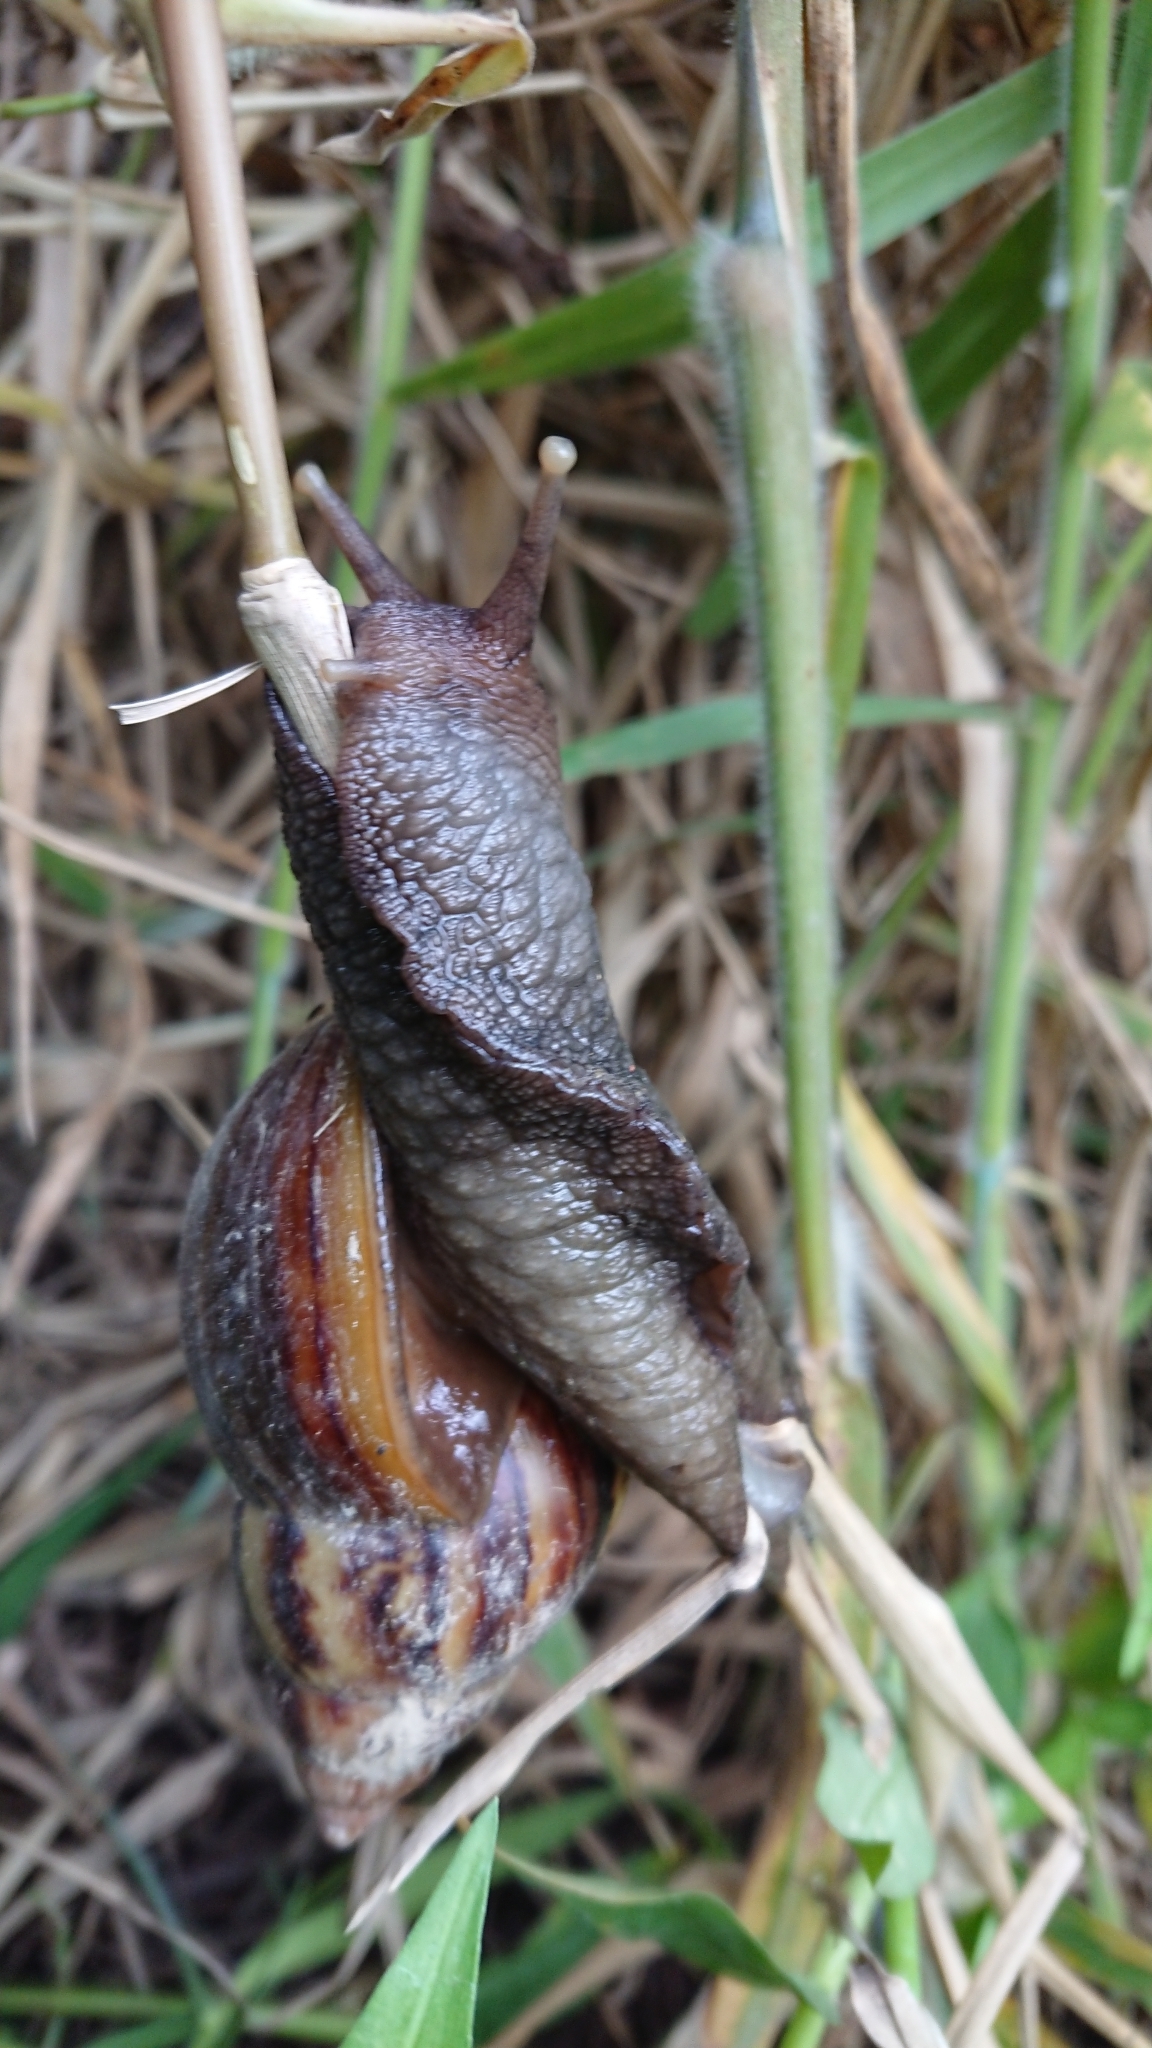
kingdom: Animalia
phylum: Mollusca
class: Gastropoda
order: Stylommatophora
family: Achatinidae
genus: Lissachatina
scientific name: Lissachatina fulica
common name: Giant african snail
